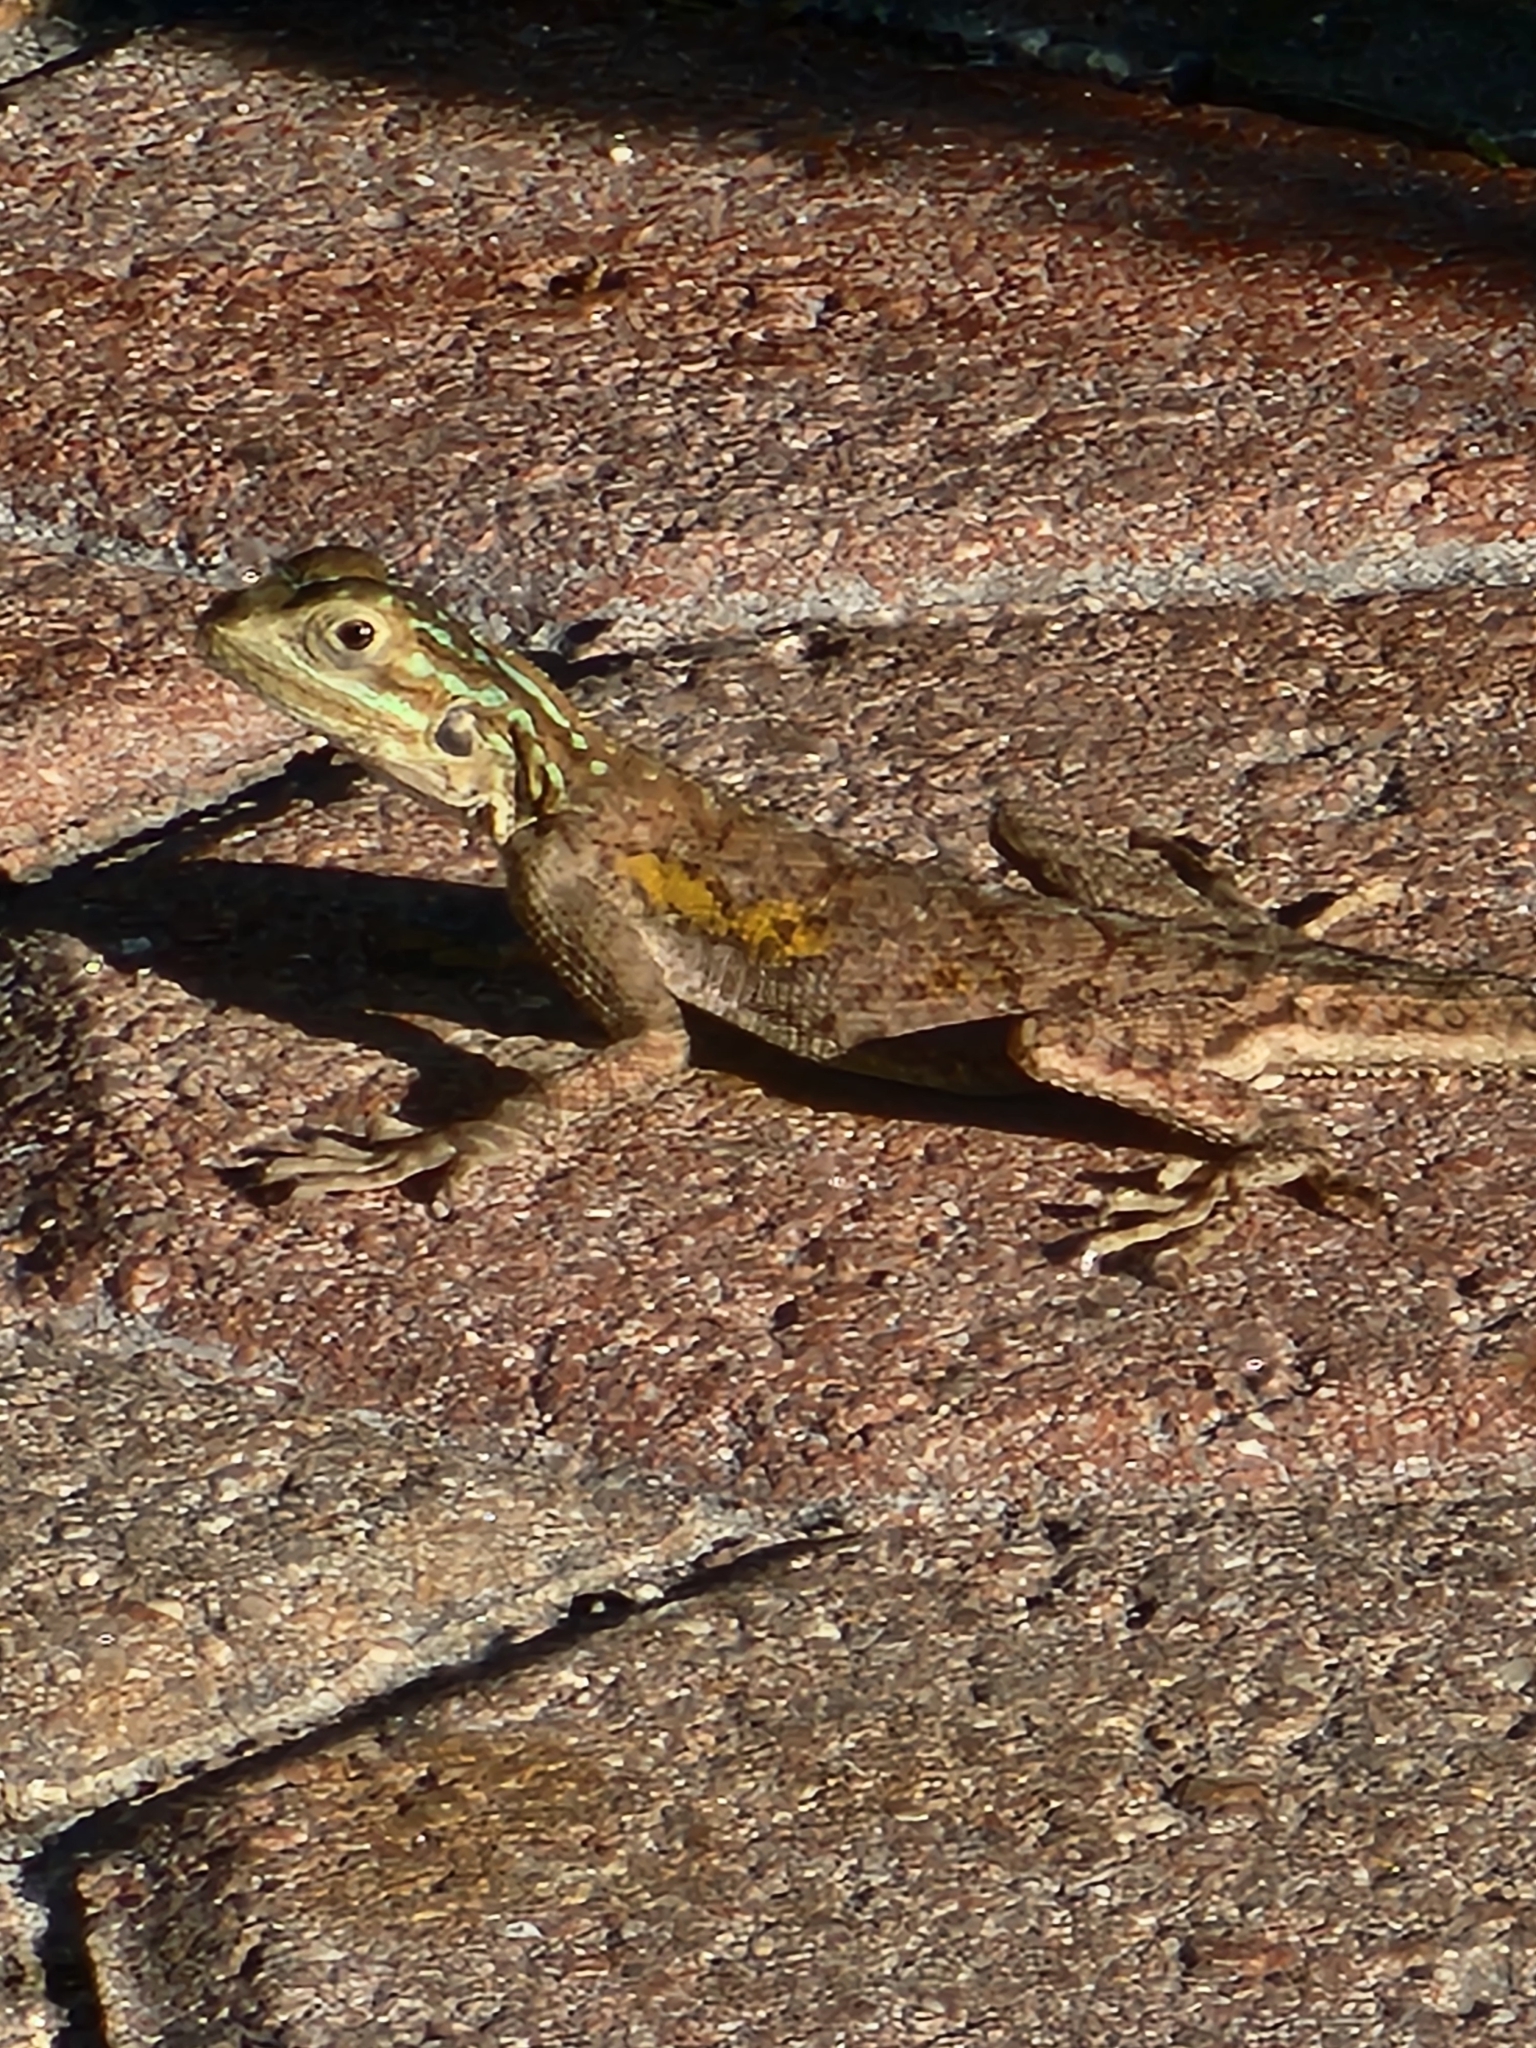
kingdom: Animalia
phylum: Chordata
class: Squamata
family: Agamidae
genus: Agama
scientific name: Agama picticauda
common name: Red-headed agama
